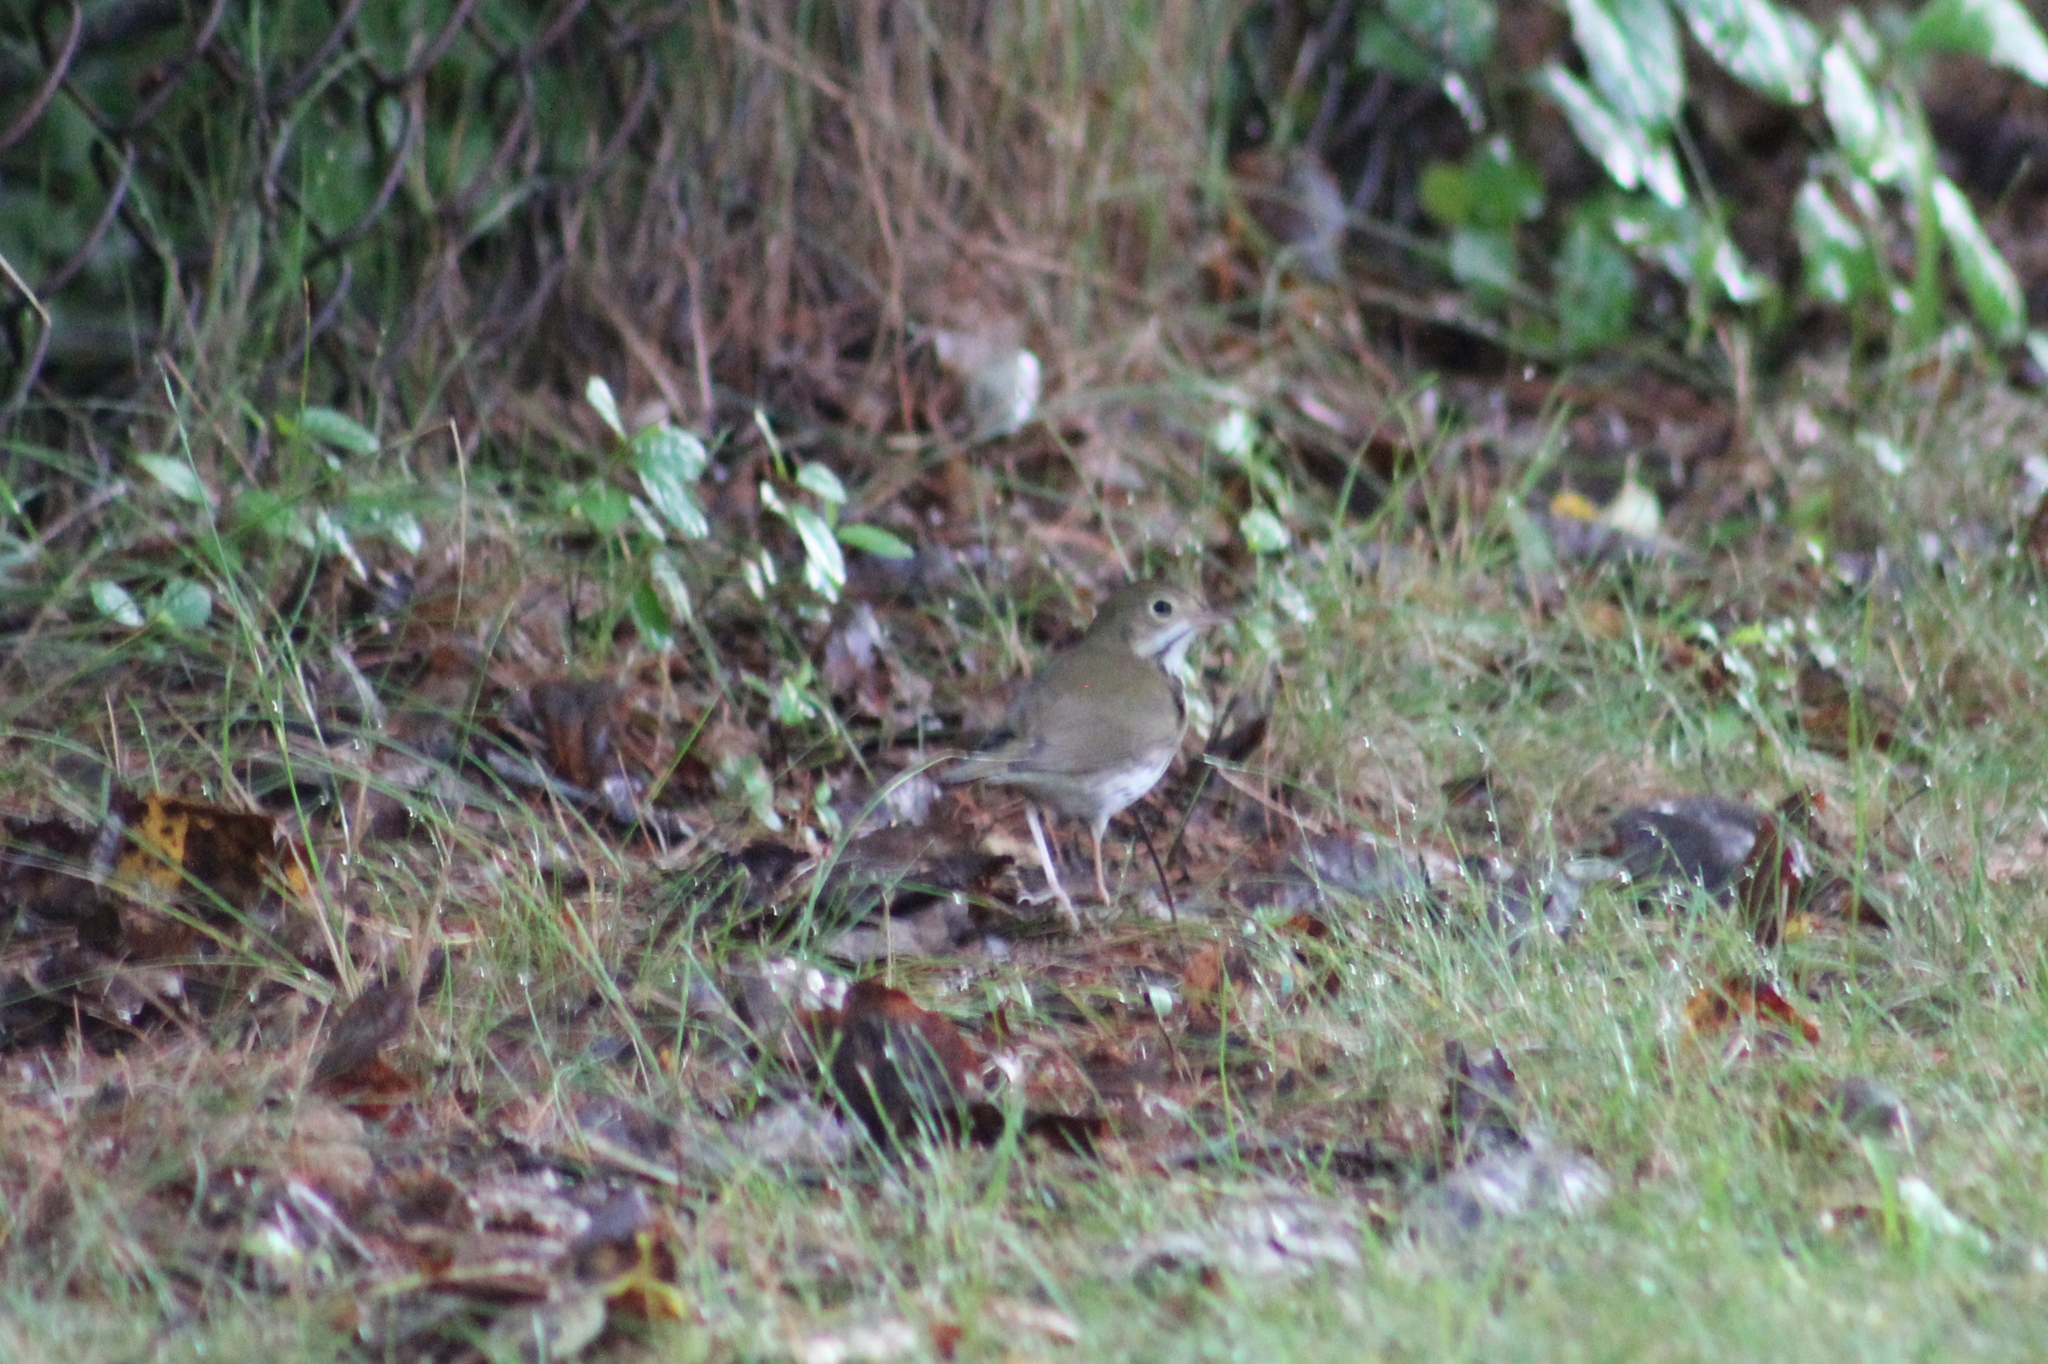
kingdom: Animalia
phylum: Chordata
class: Aves
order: Passeriformes
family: Parulidae
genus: Seiurus
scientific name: Seiurus aurocapilla
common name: Ovenbird
